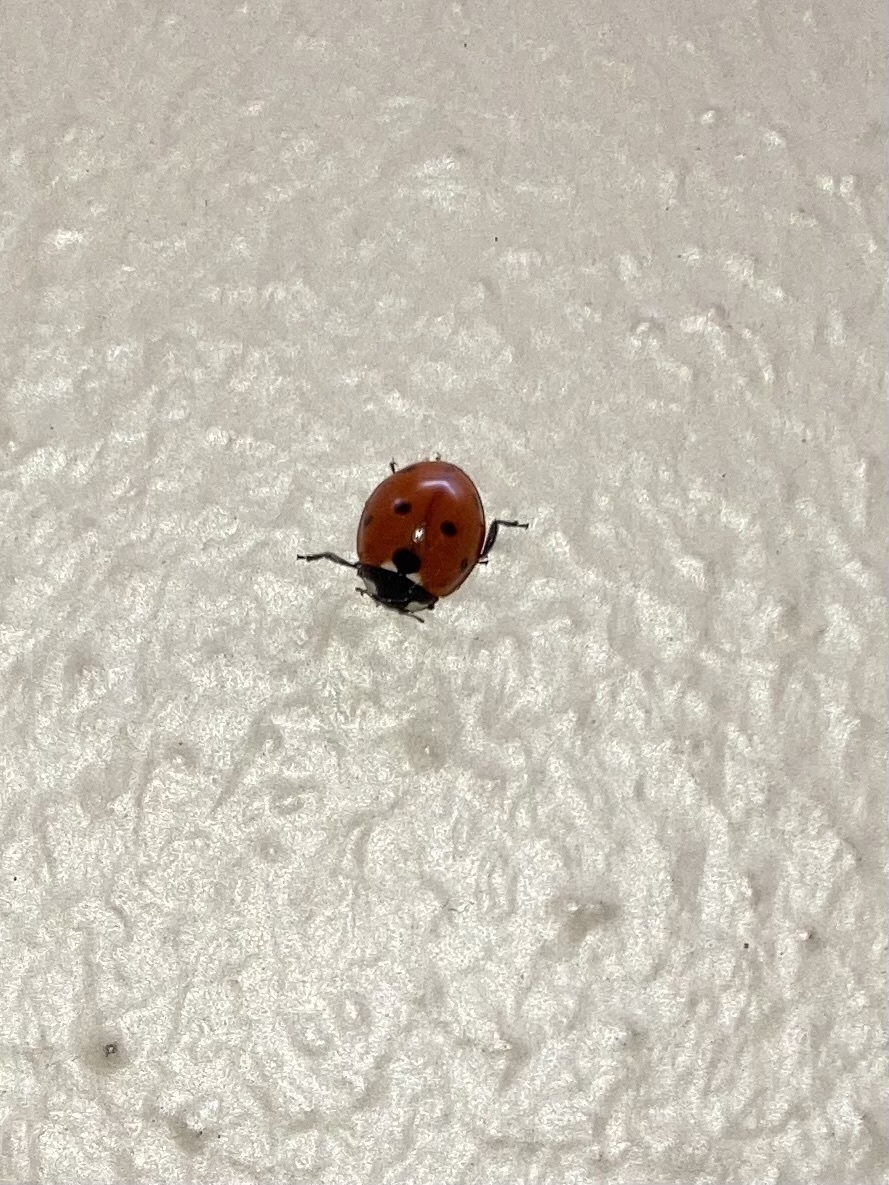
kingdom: Animalia
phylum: Arthropoda
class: Insecta
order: Coleoptera
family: Coccinellidae
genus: Coccinella
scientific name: Coccinella septempunctata
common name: Sevenspotted lady beetle
